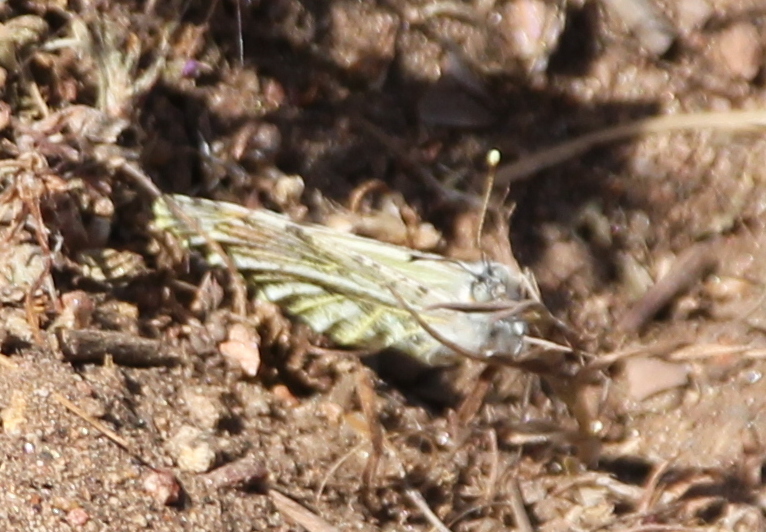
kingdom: Animalia
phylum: Arthropoda
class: Insecta
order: Lepidoptera
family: Pieridae
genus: Anthocharis
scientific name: Anthocharis sara
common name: Sara's orangetip
